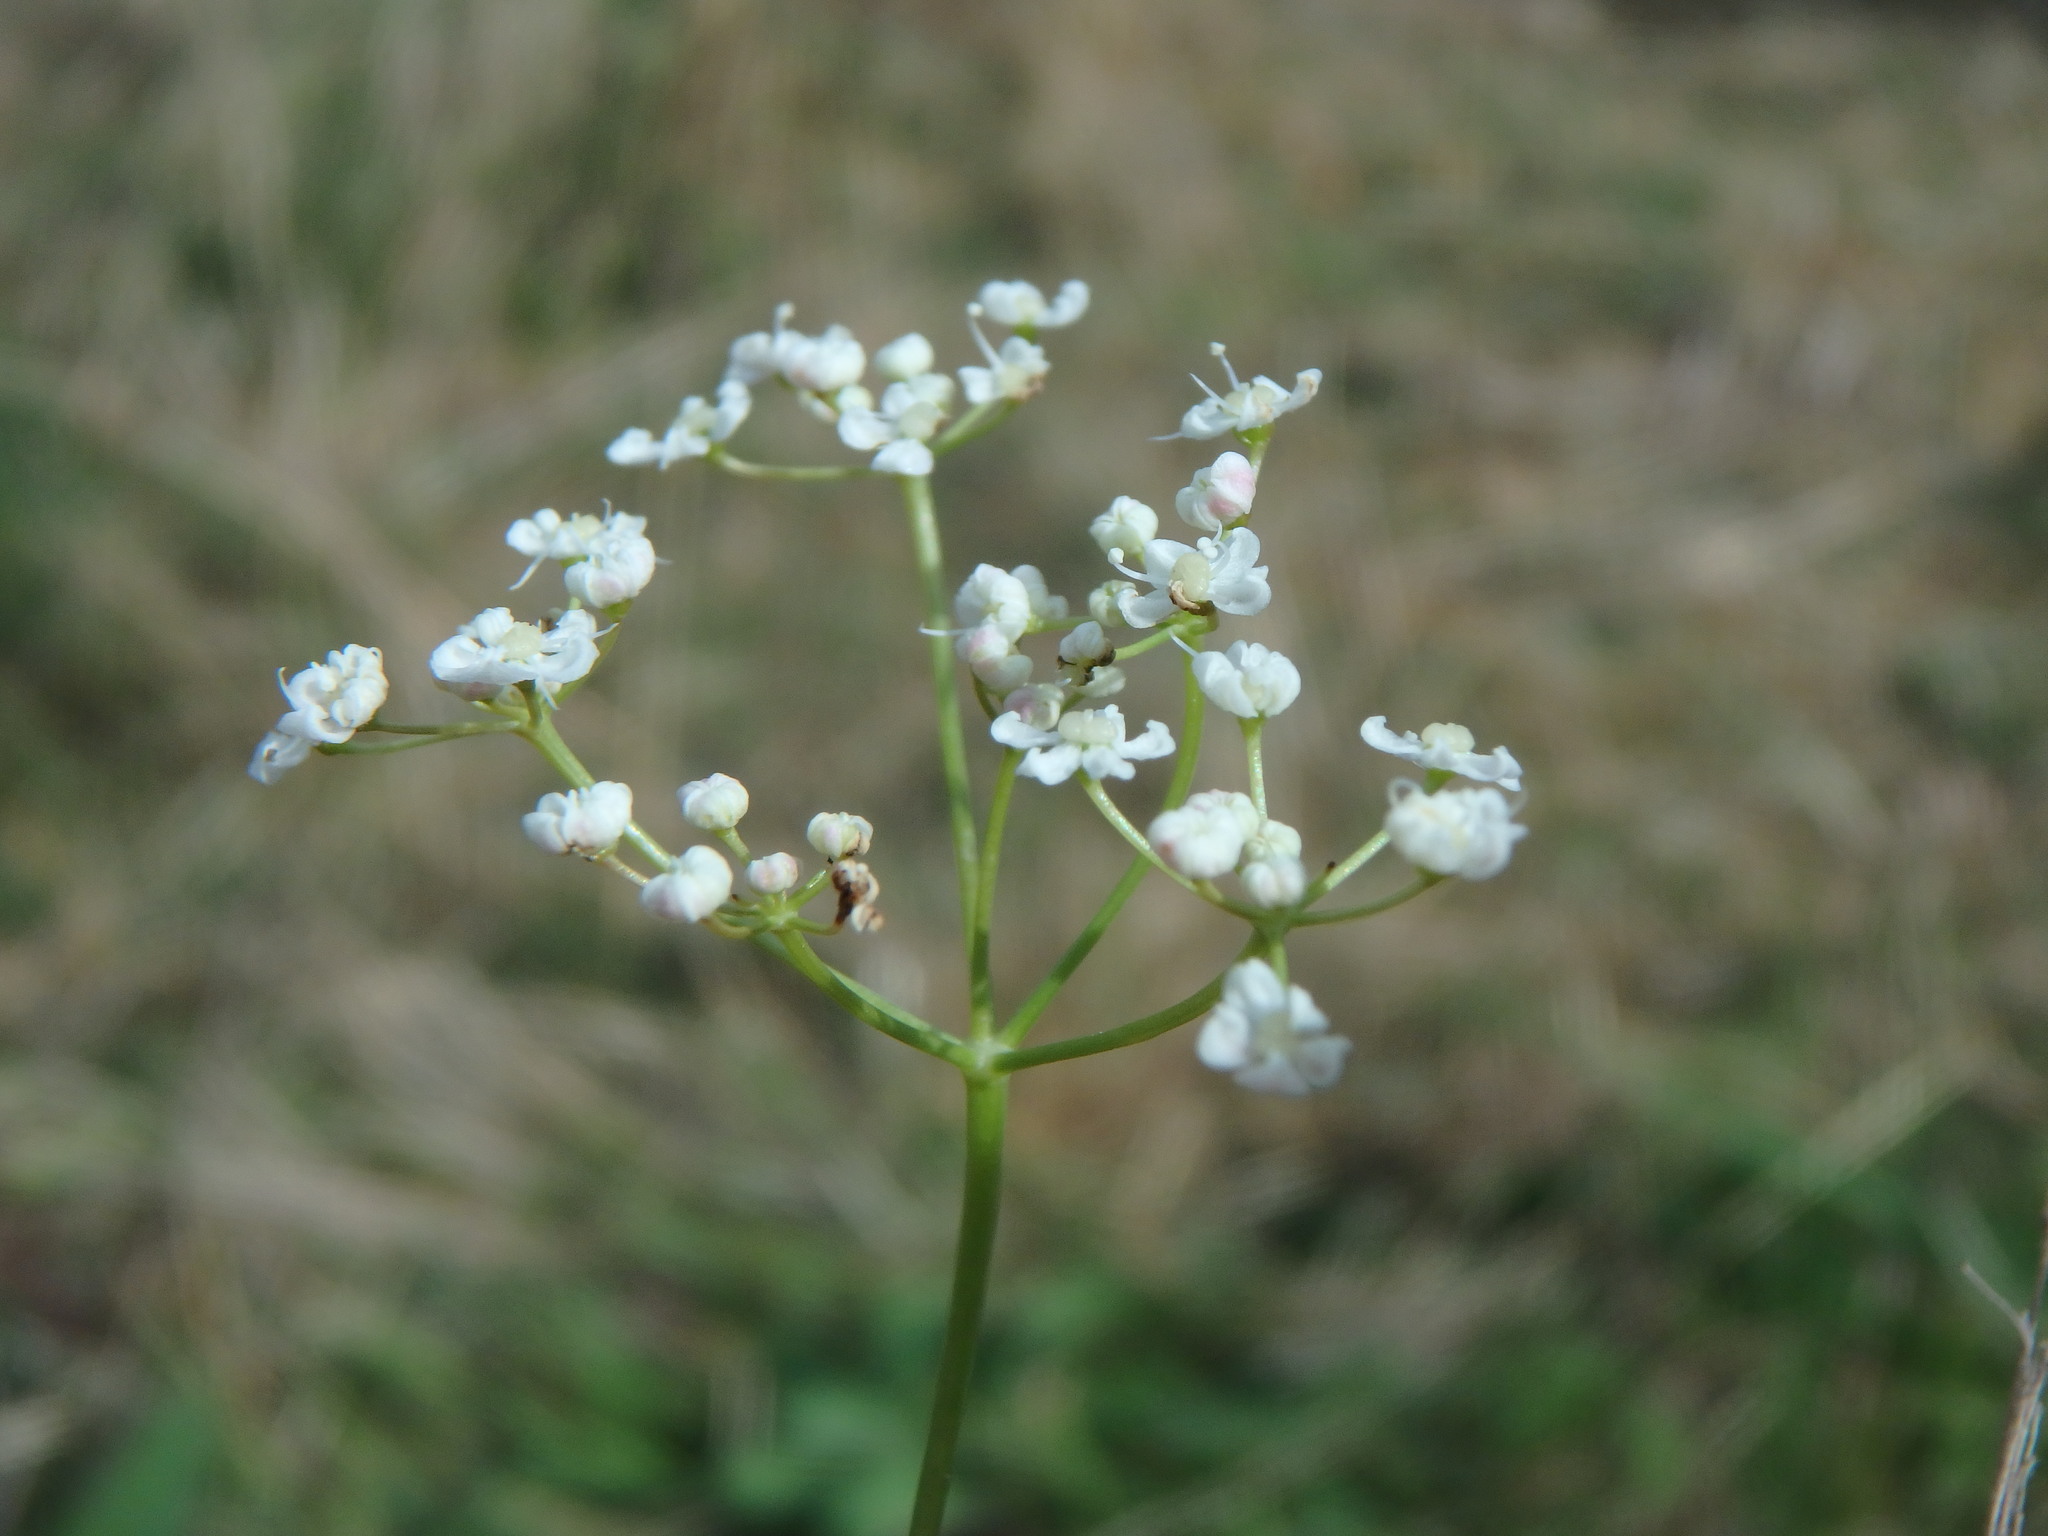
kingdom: Plantae
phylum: Tracheophyta
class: Magnoliopsida
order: Apiales
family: Apiaceae
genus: Pimpinella
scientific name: Pimpinella saxifraga
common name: Burnet-saxifrage
